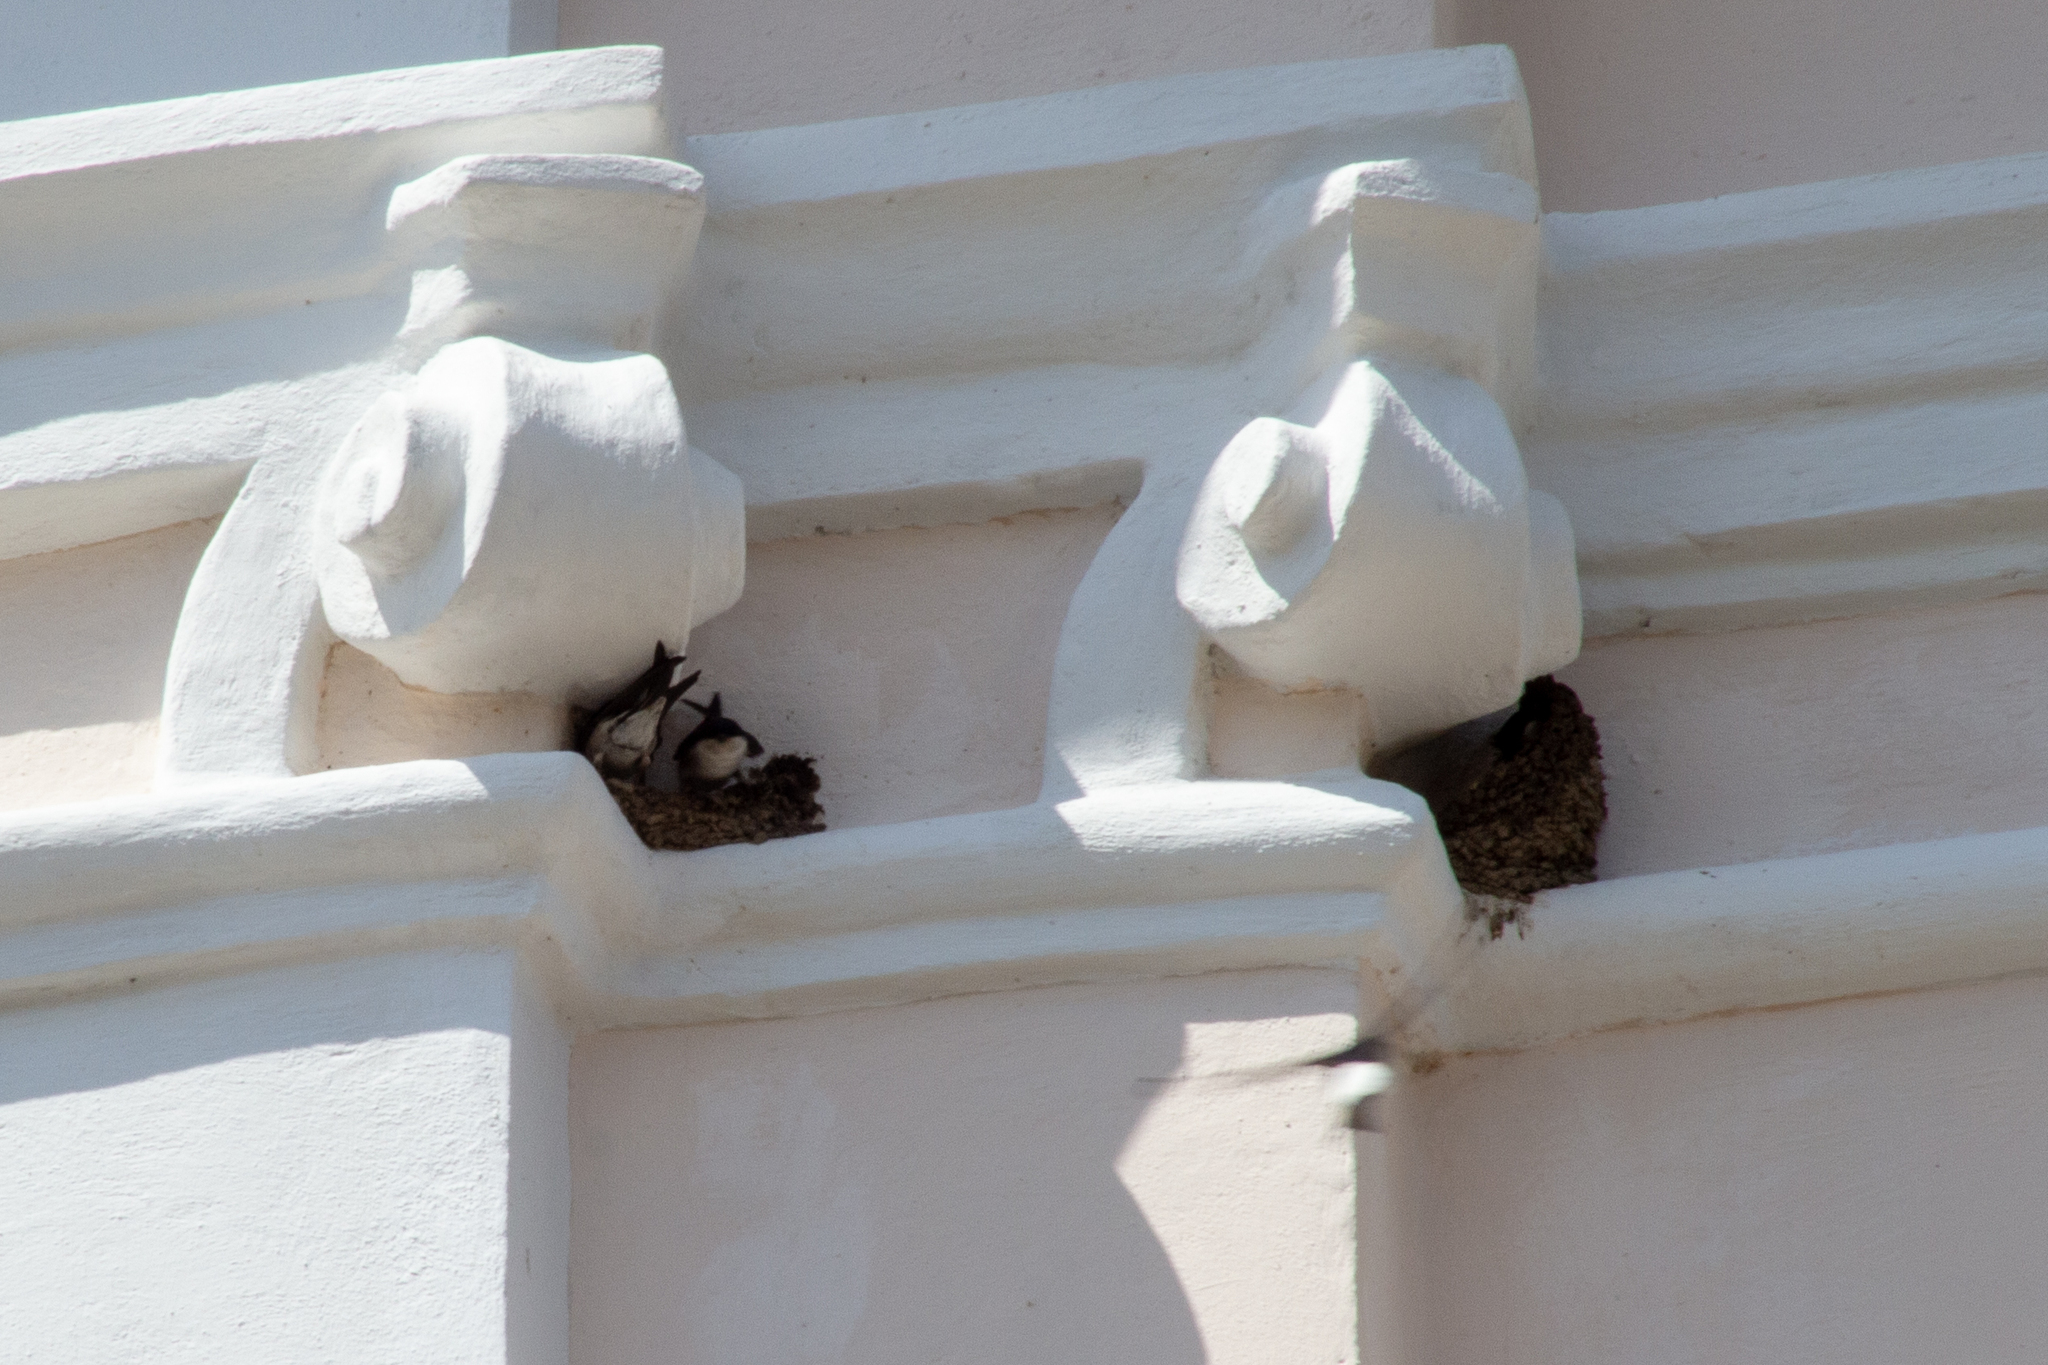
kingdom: Animalia
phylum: Chordata
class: Aves
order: Passeriformes
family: Hirundinidae
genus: Delichon
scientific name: Delichon urbicum
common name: Common house martin
